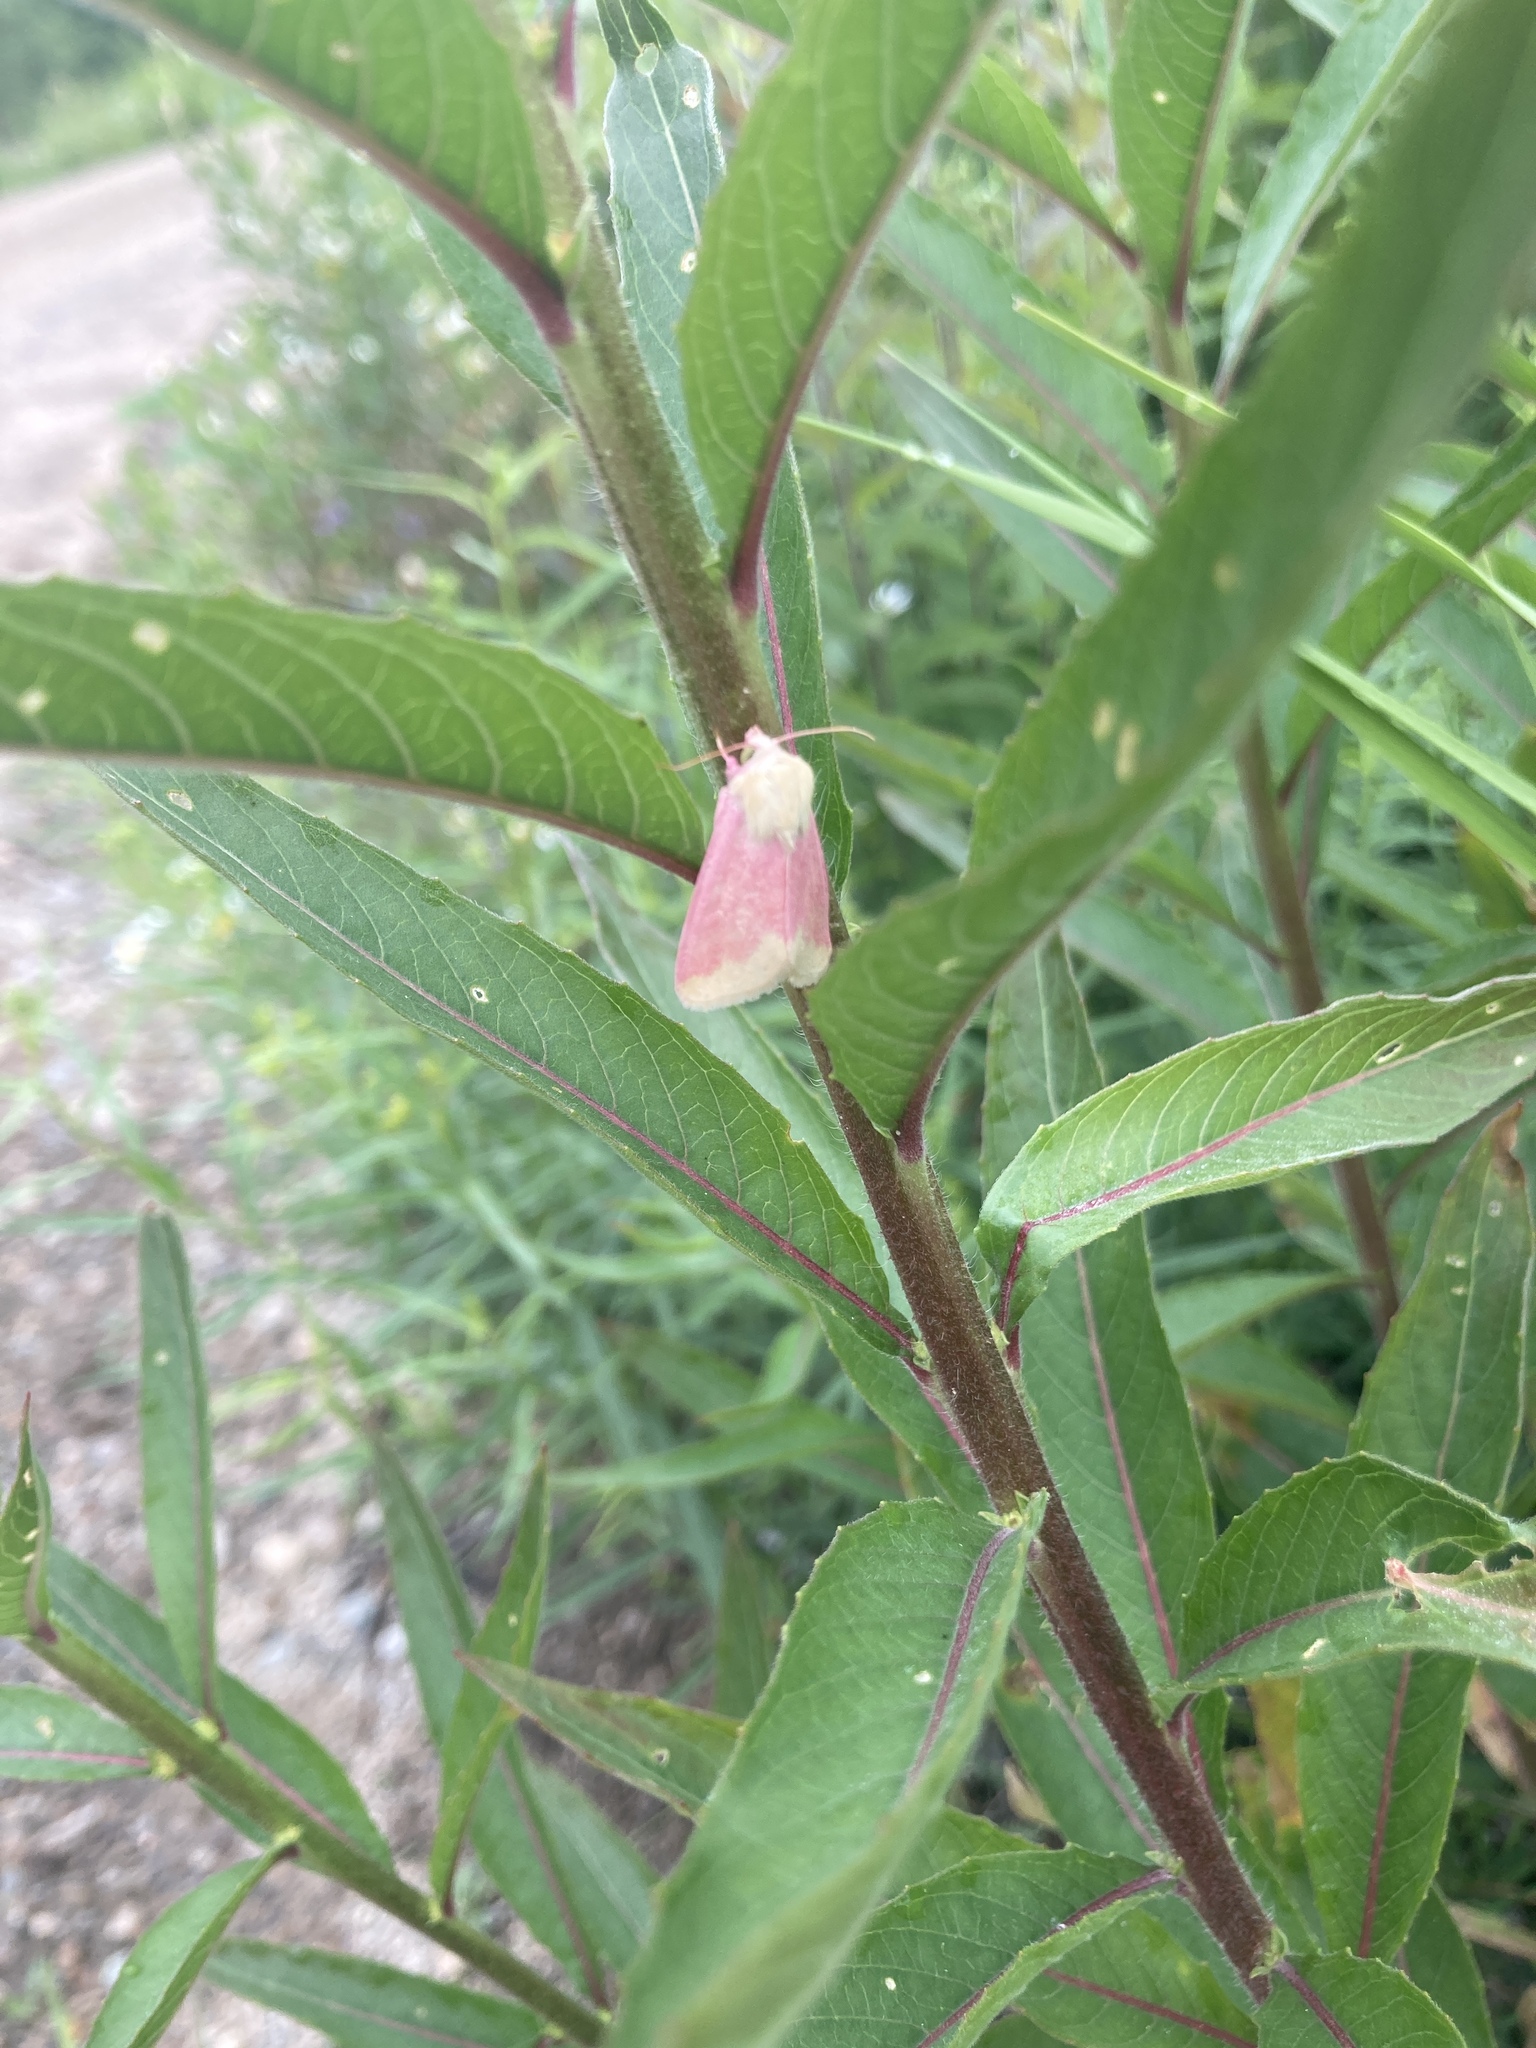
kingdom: Animalia
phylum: Arthropoda
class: Insecta
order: Lepidoptera
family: Noctuidae
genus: Schinia
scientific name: Schinia florida
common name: Primrose moth
